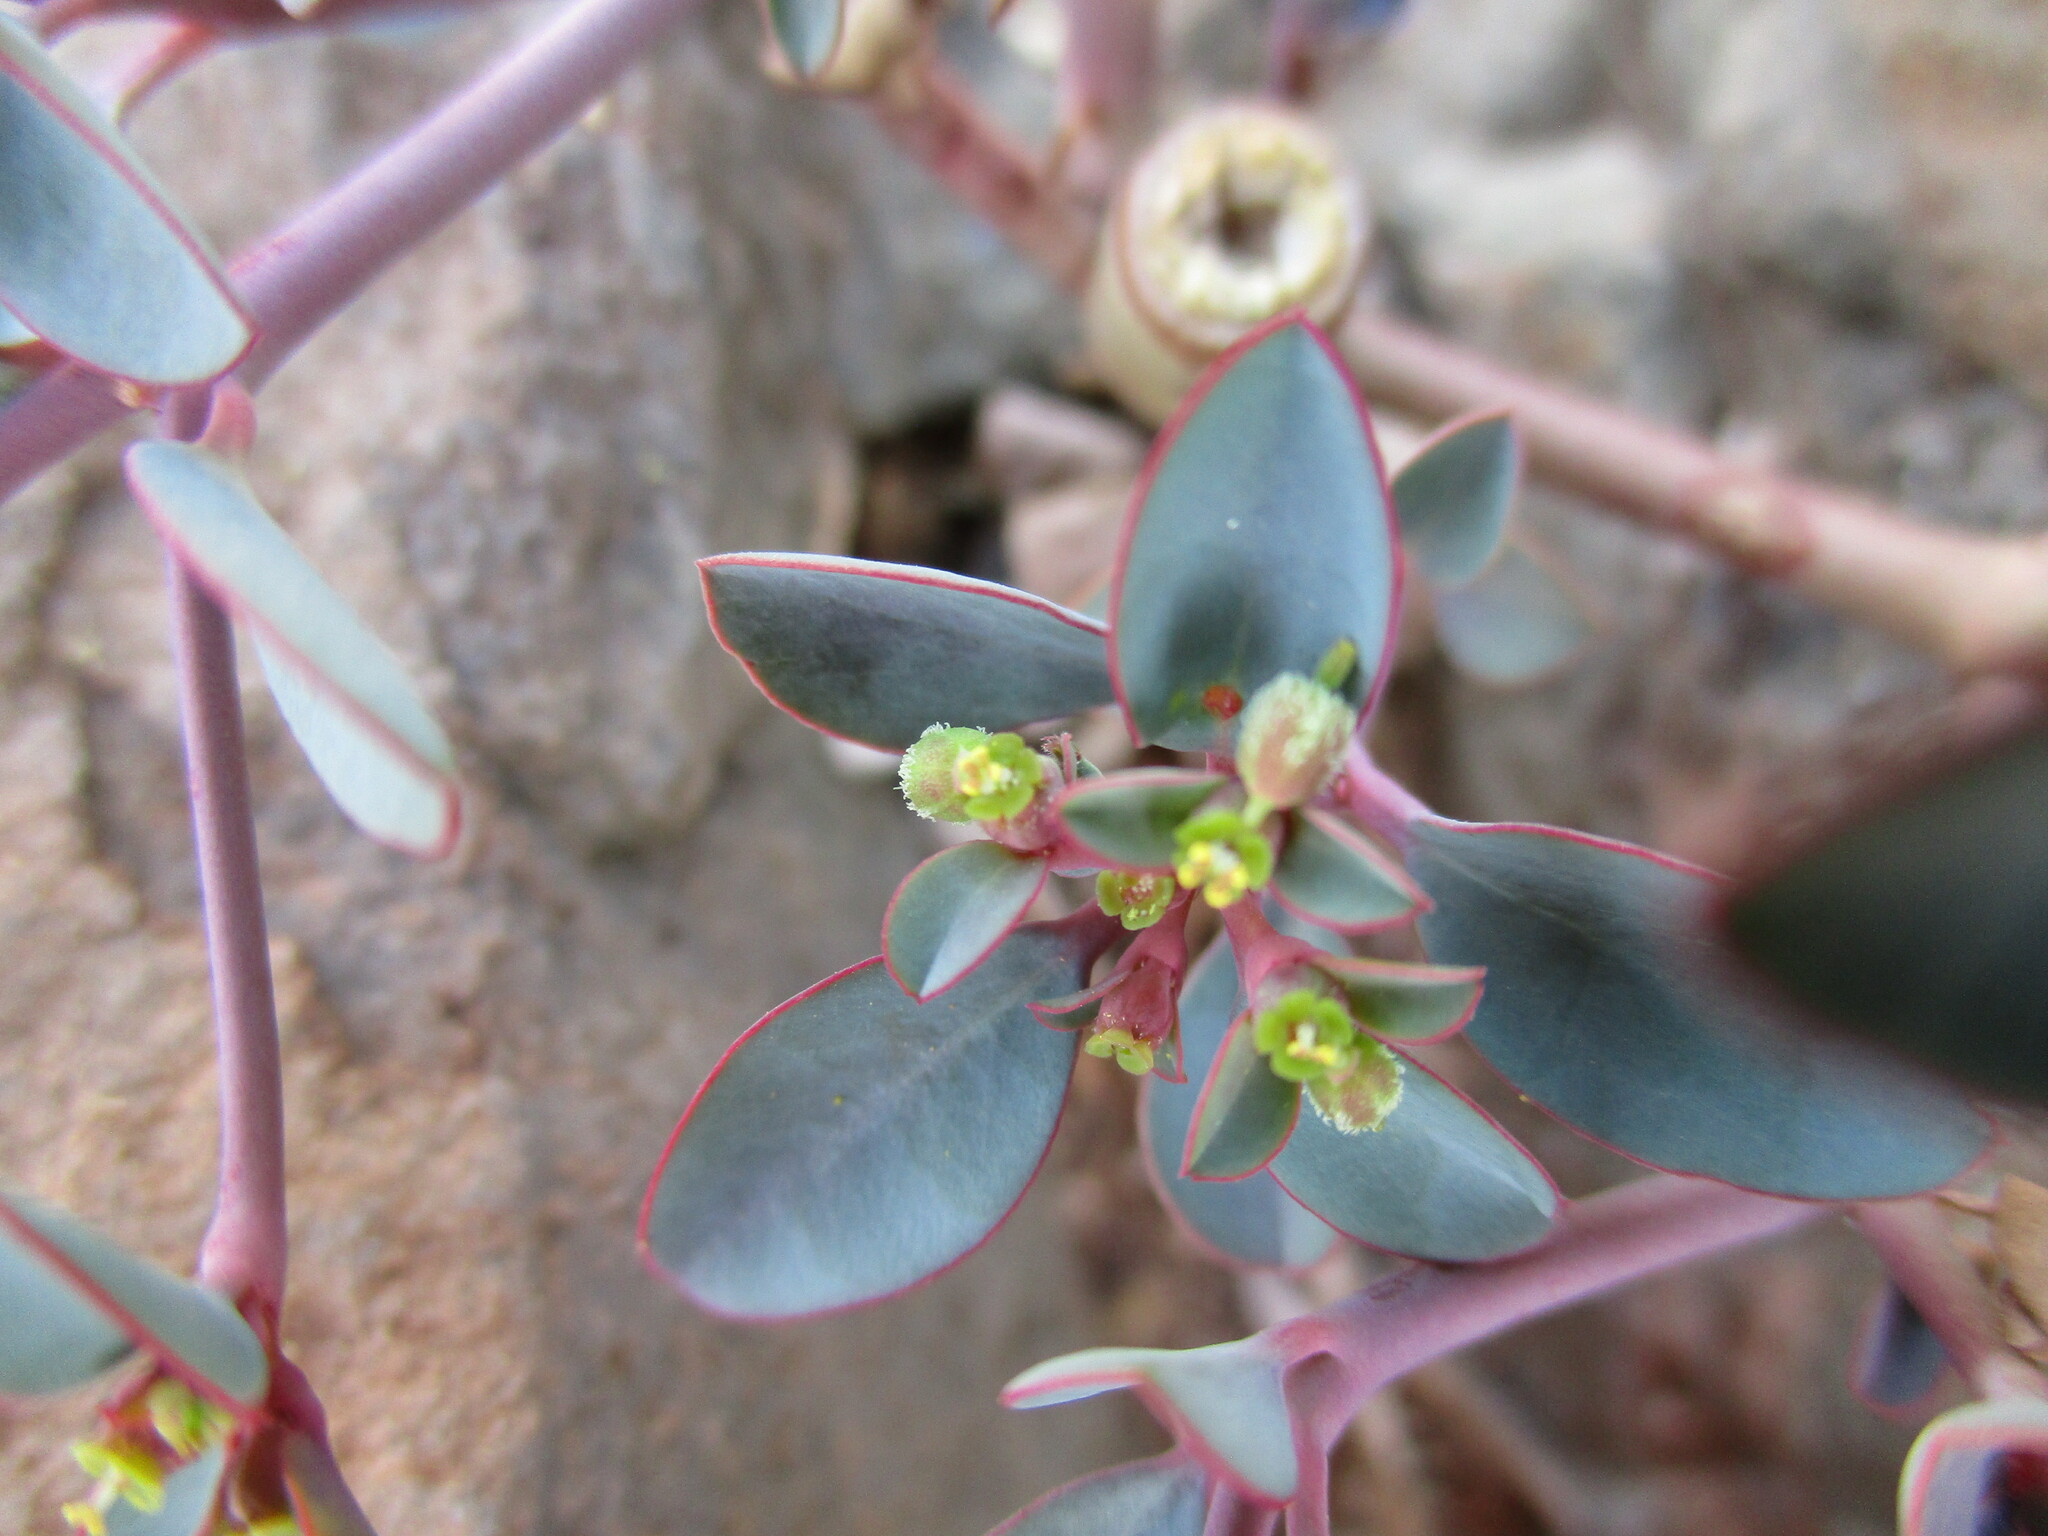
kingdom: Plantae
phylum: Tracheophyta
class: Magnoliopsida
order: Malpighiales
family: Euphorbiaceae
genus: Euphorbia
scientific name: Euphorbia glanduligera
